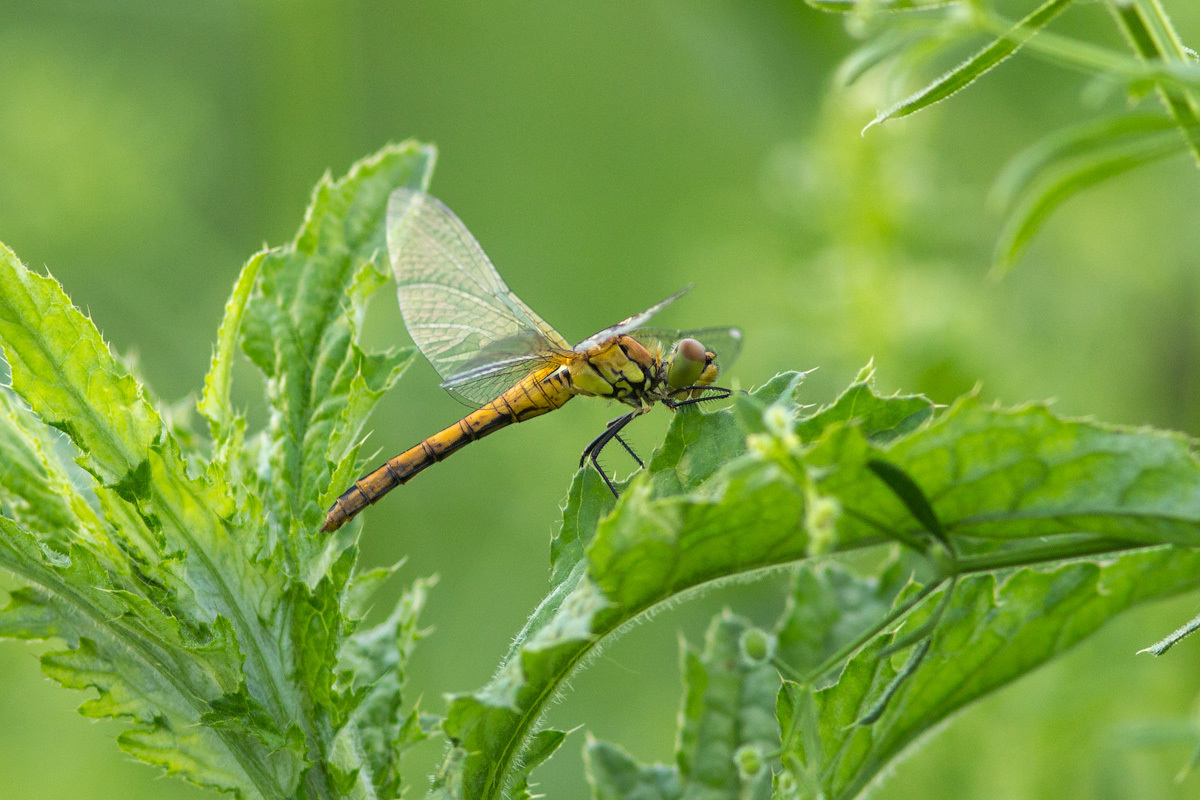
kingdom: Animalia
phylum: Arthropoda
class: Insecta
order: Odonata
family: Libellulidae
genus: Sympetrum
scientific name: Sympetrum sanguineum
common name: Ruddy darter
